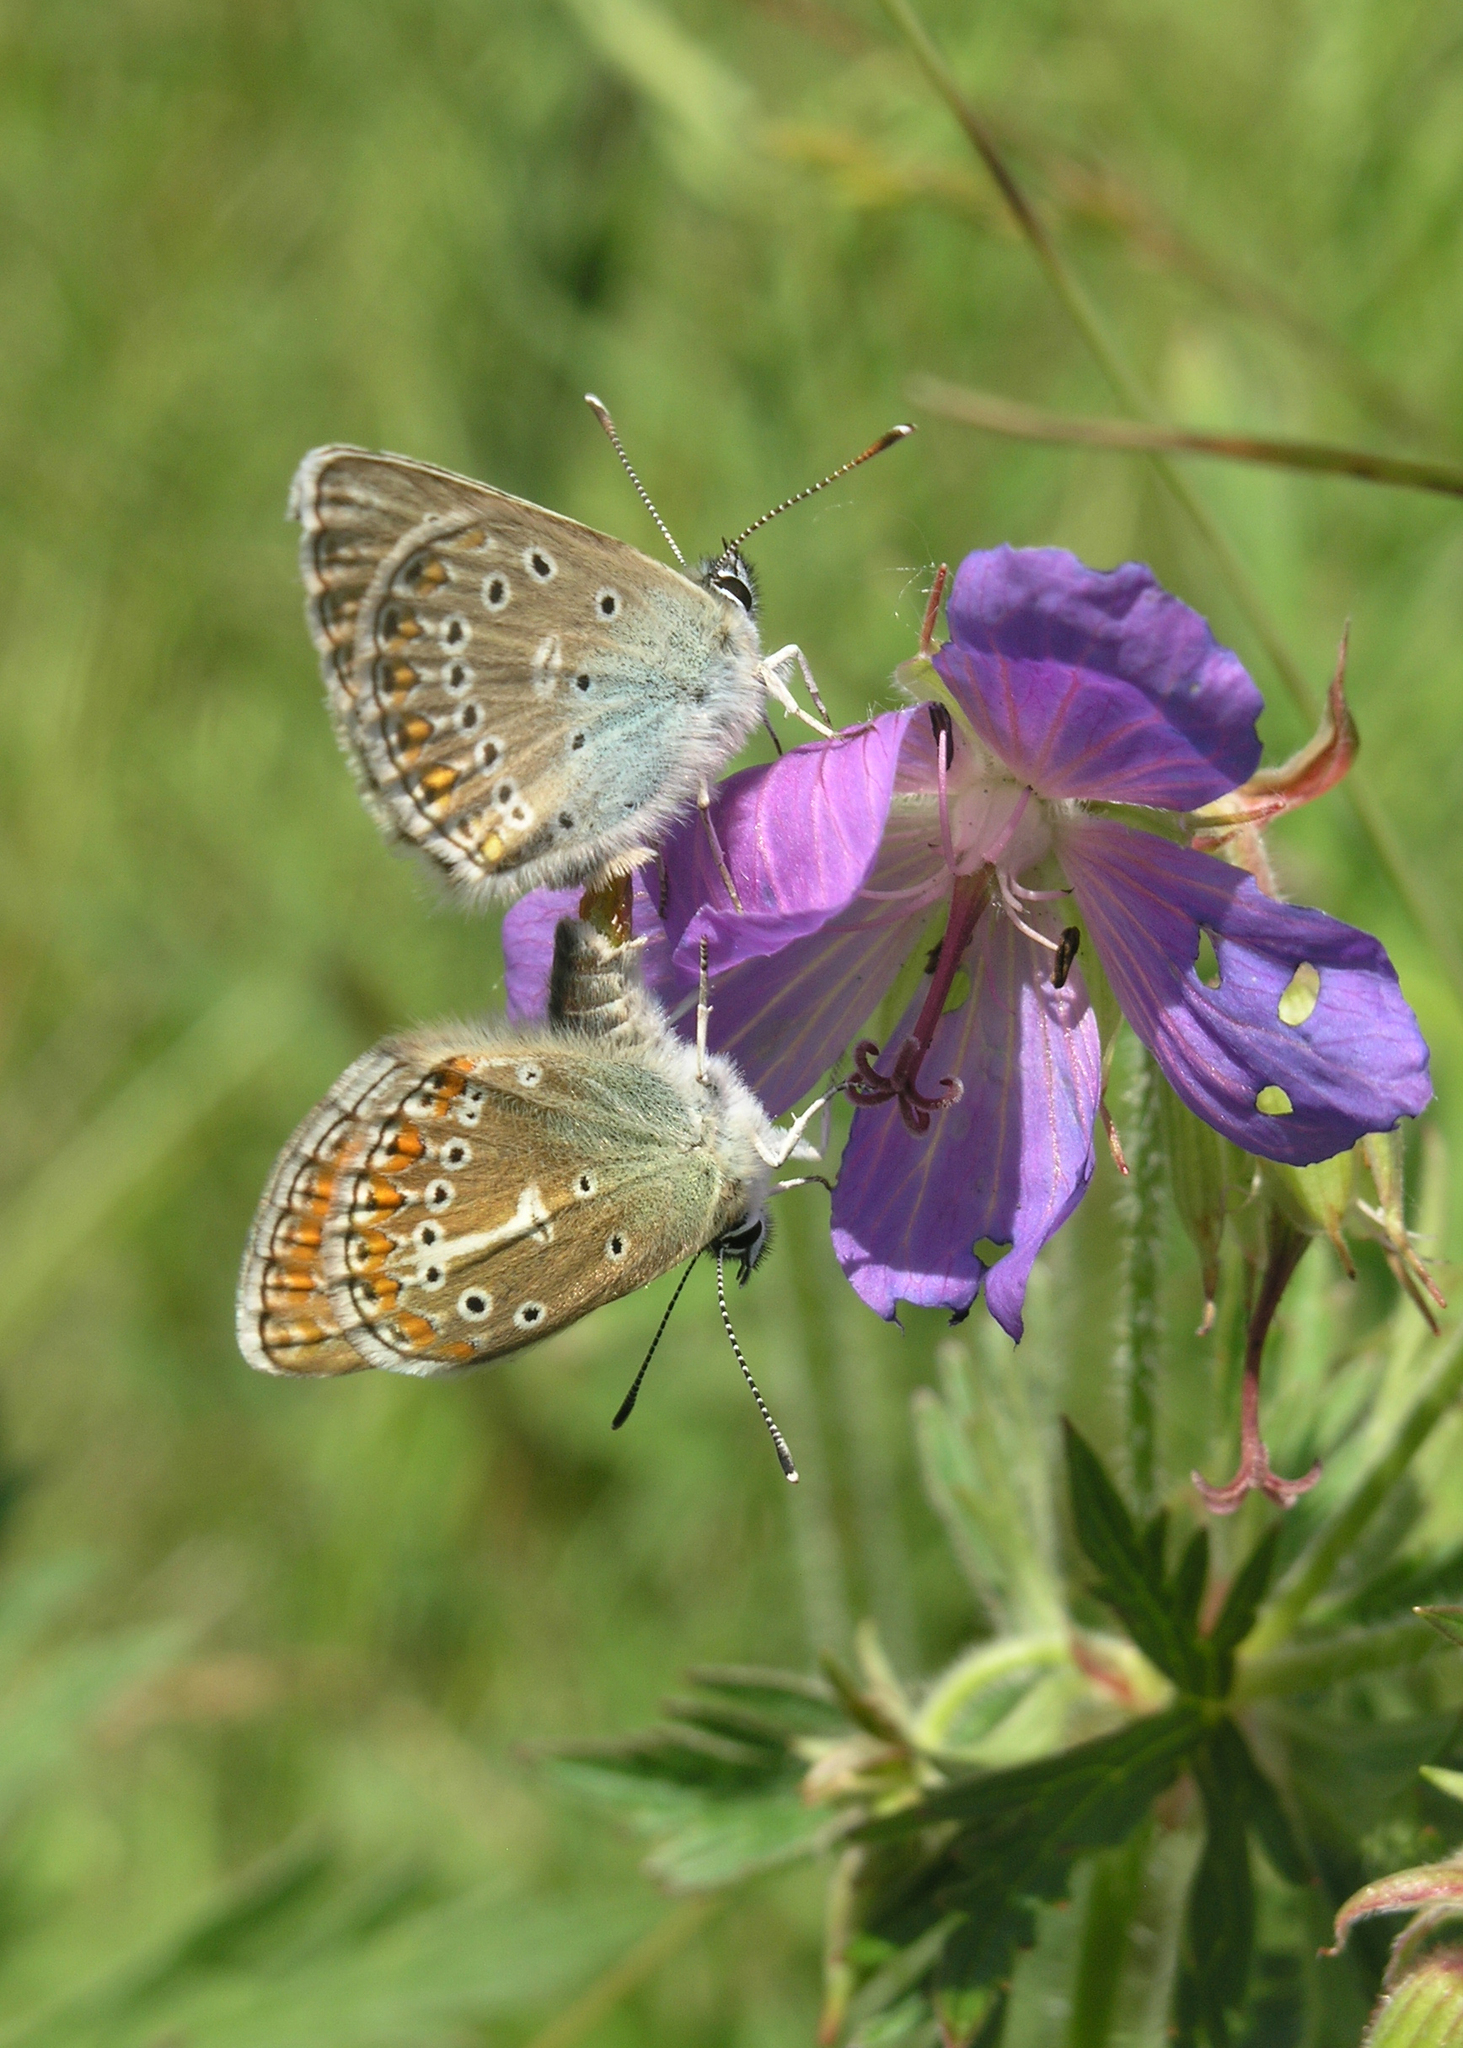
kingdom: Animalia
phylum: Arthropoda
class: Insecta
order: Lepidoptera
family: Lycaenidae
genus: Eumedonia
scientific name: Eumedonia eumedon
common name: Geranium argus
